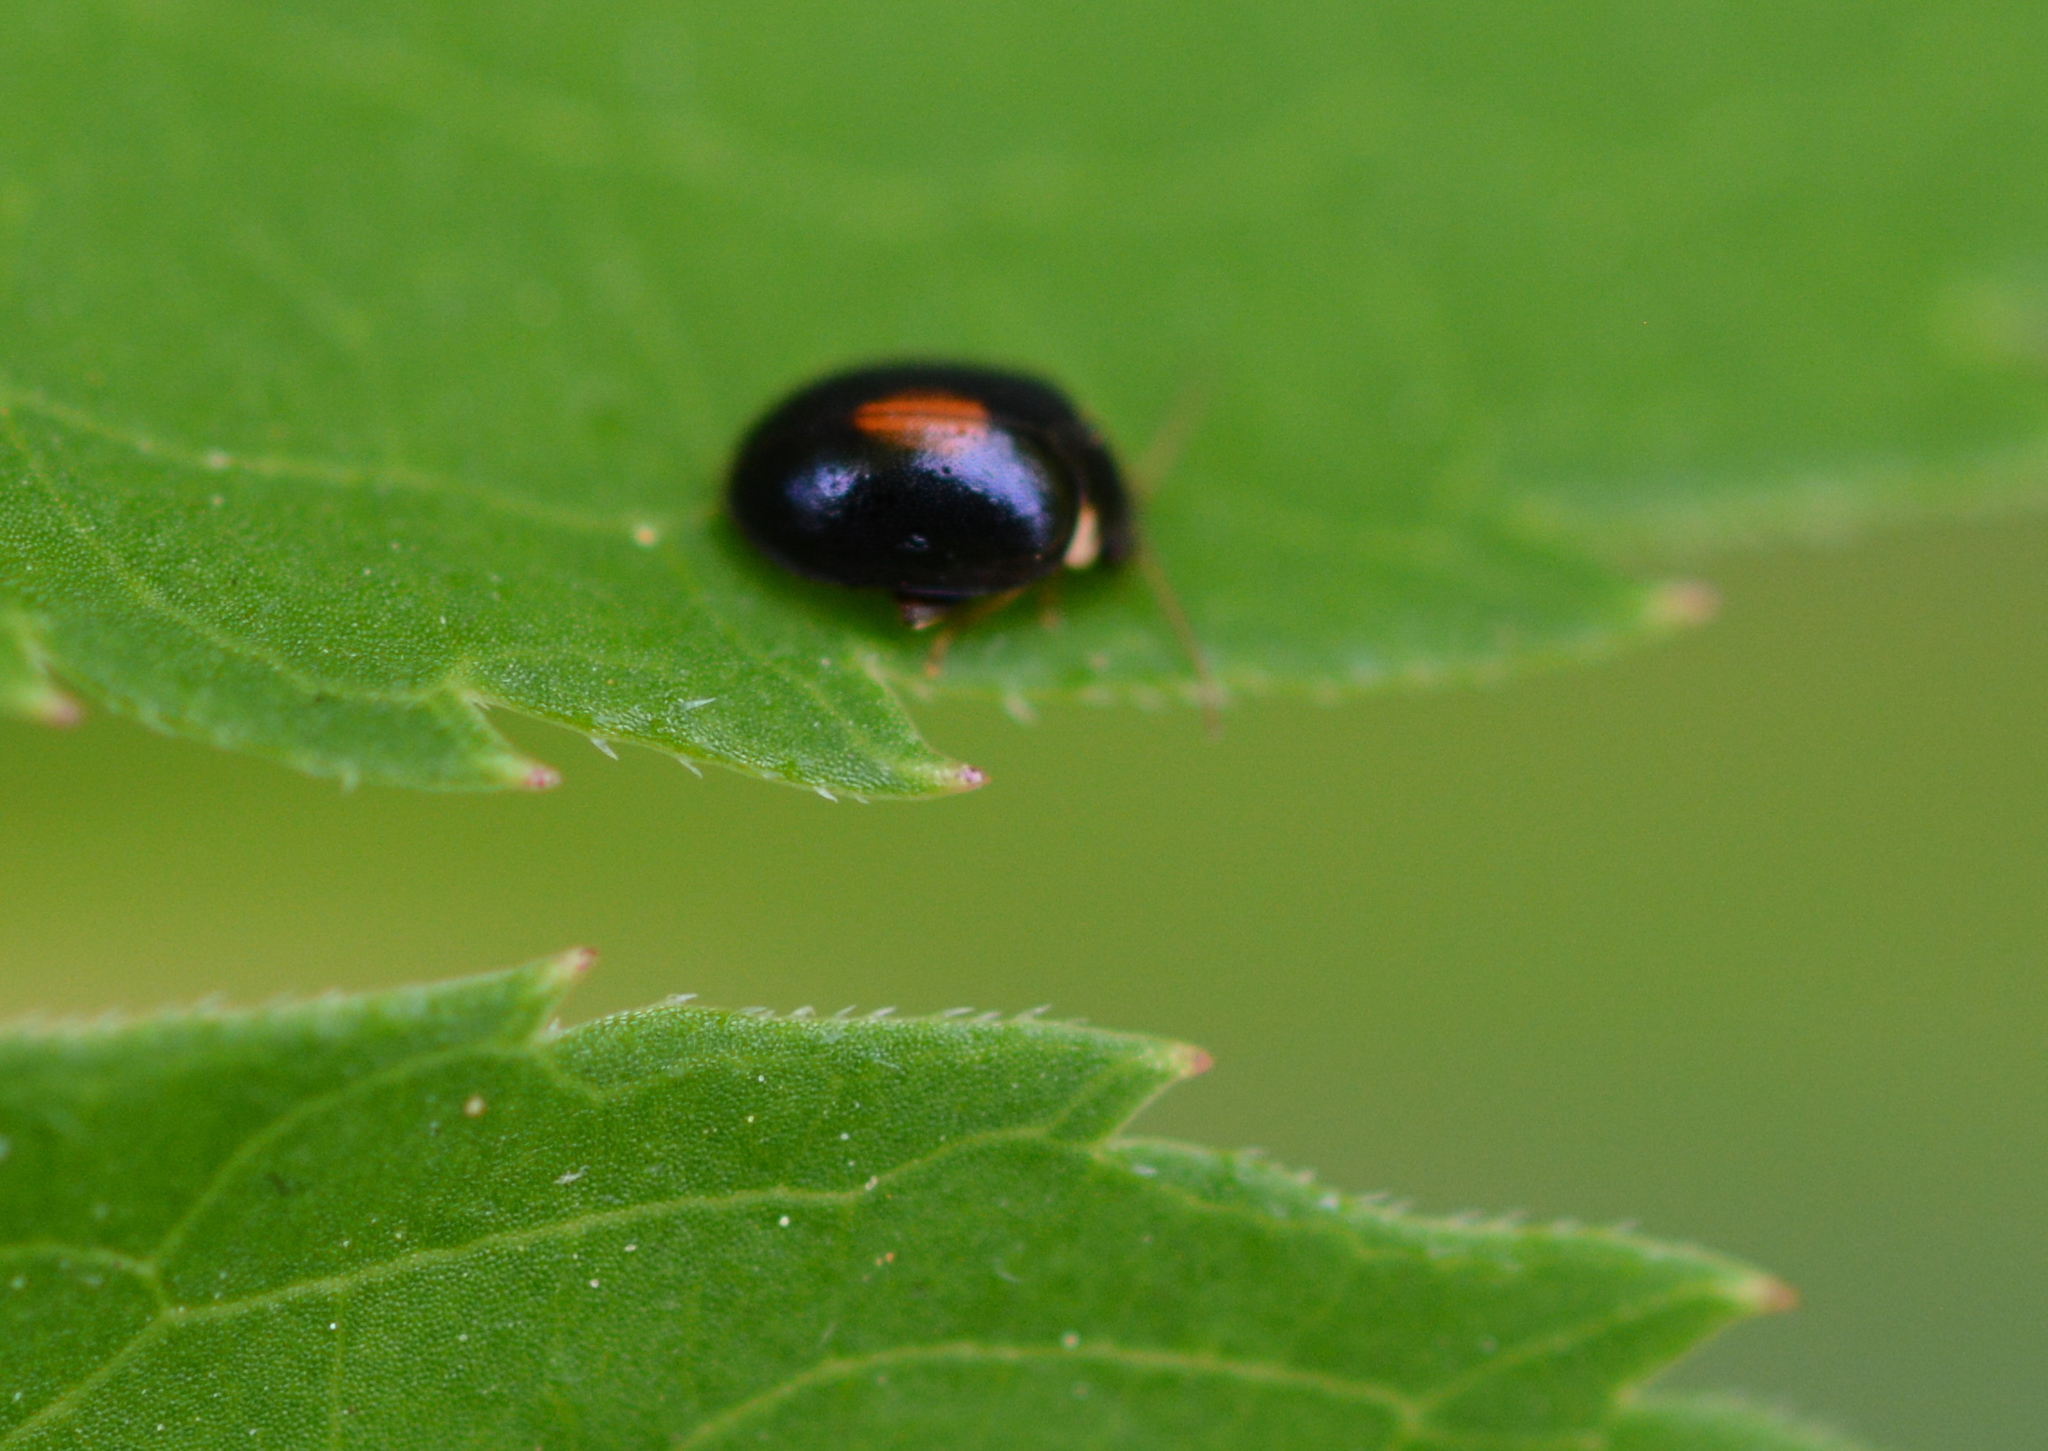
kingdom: Animalia
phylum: Arthropoda
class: Insecta
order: Coleoptera
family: Scirtidae
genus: Scirtes
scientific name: Scirtes orbiculatus
